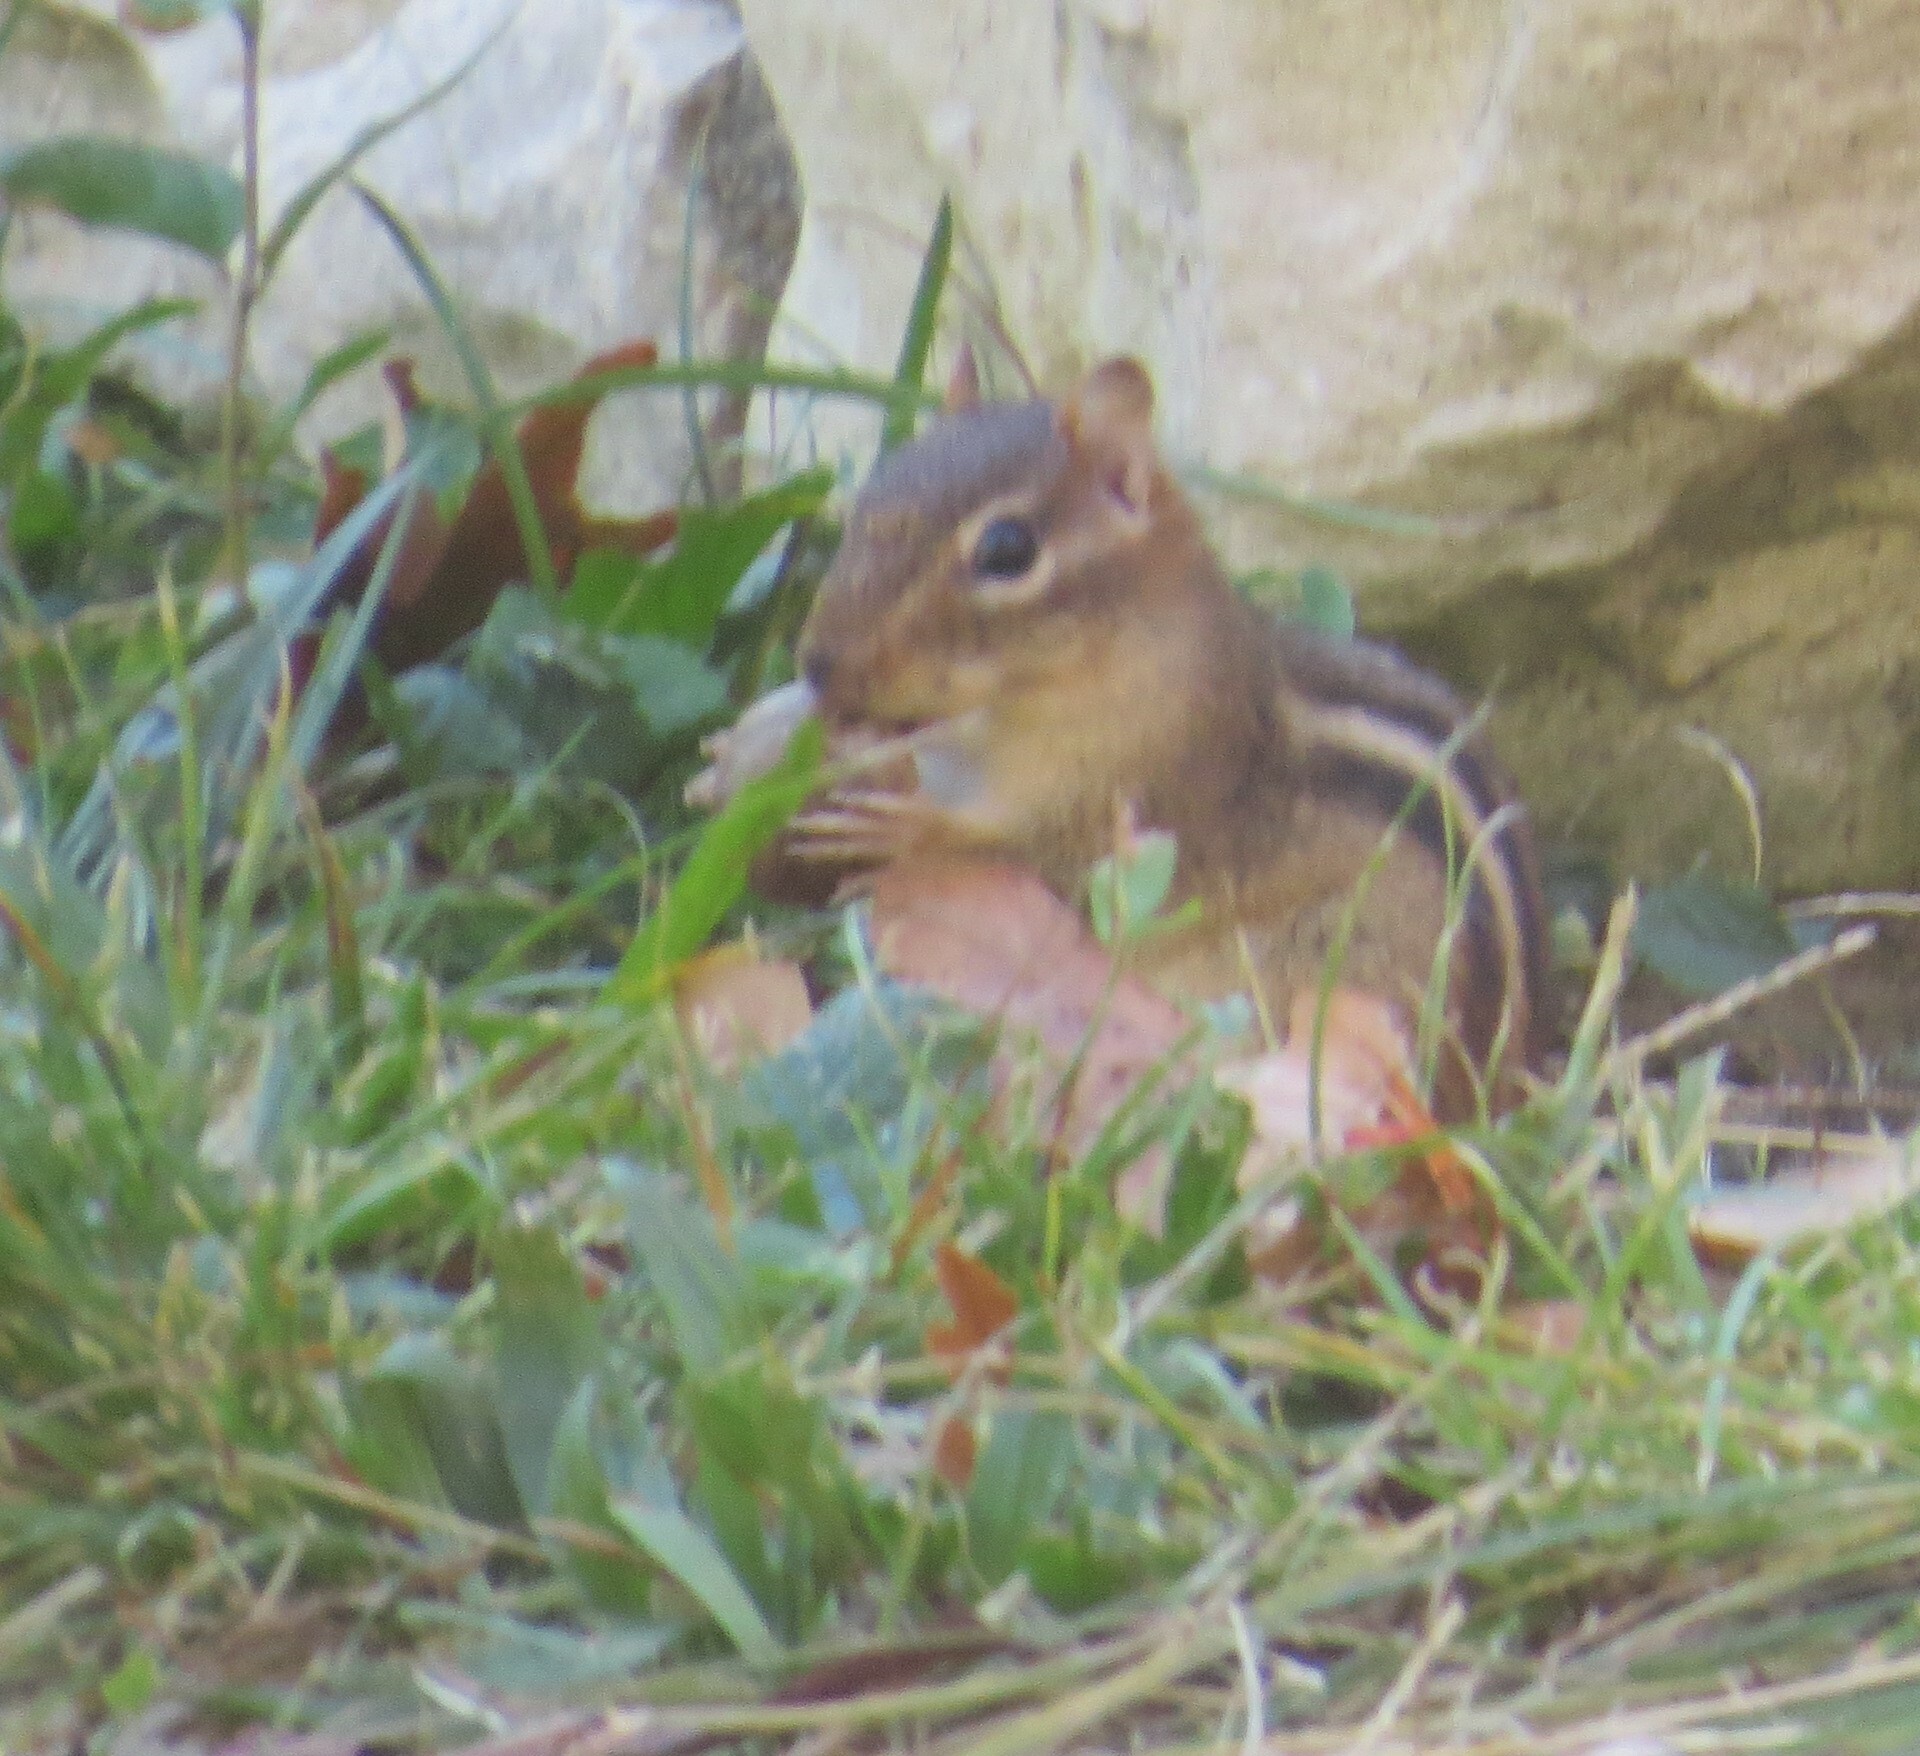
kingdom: Animalia
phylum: Chordata
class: Mammalia
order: Rodentia
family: Sciuridae
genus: Tamias
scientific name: Tamias striatus
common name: Eastern chipmunk
